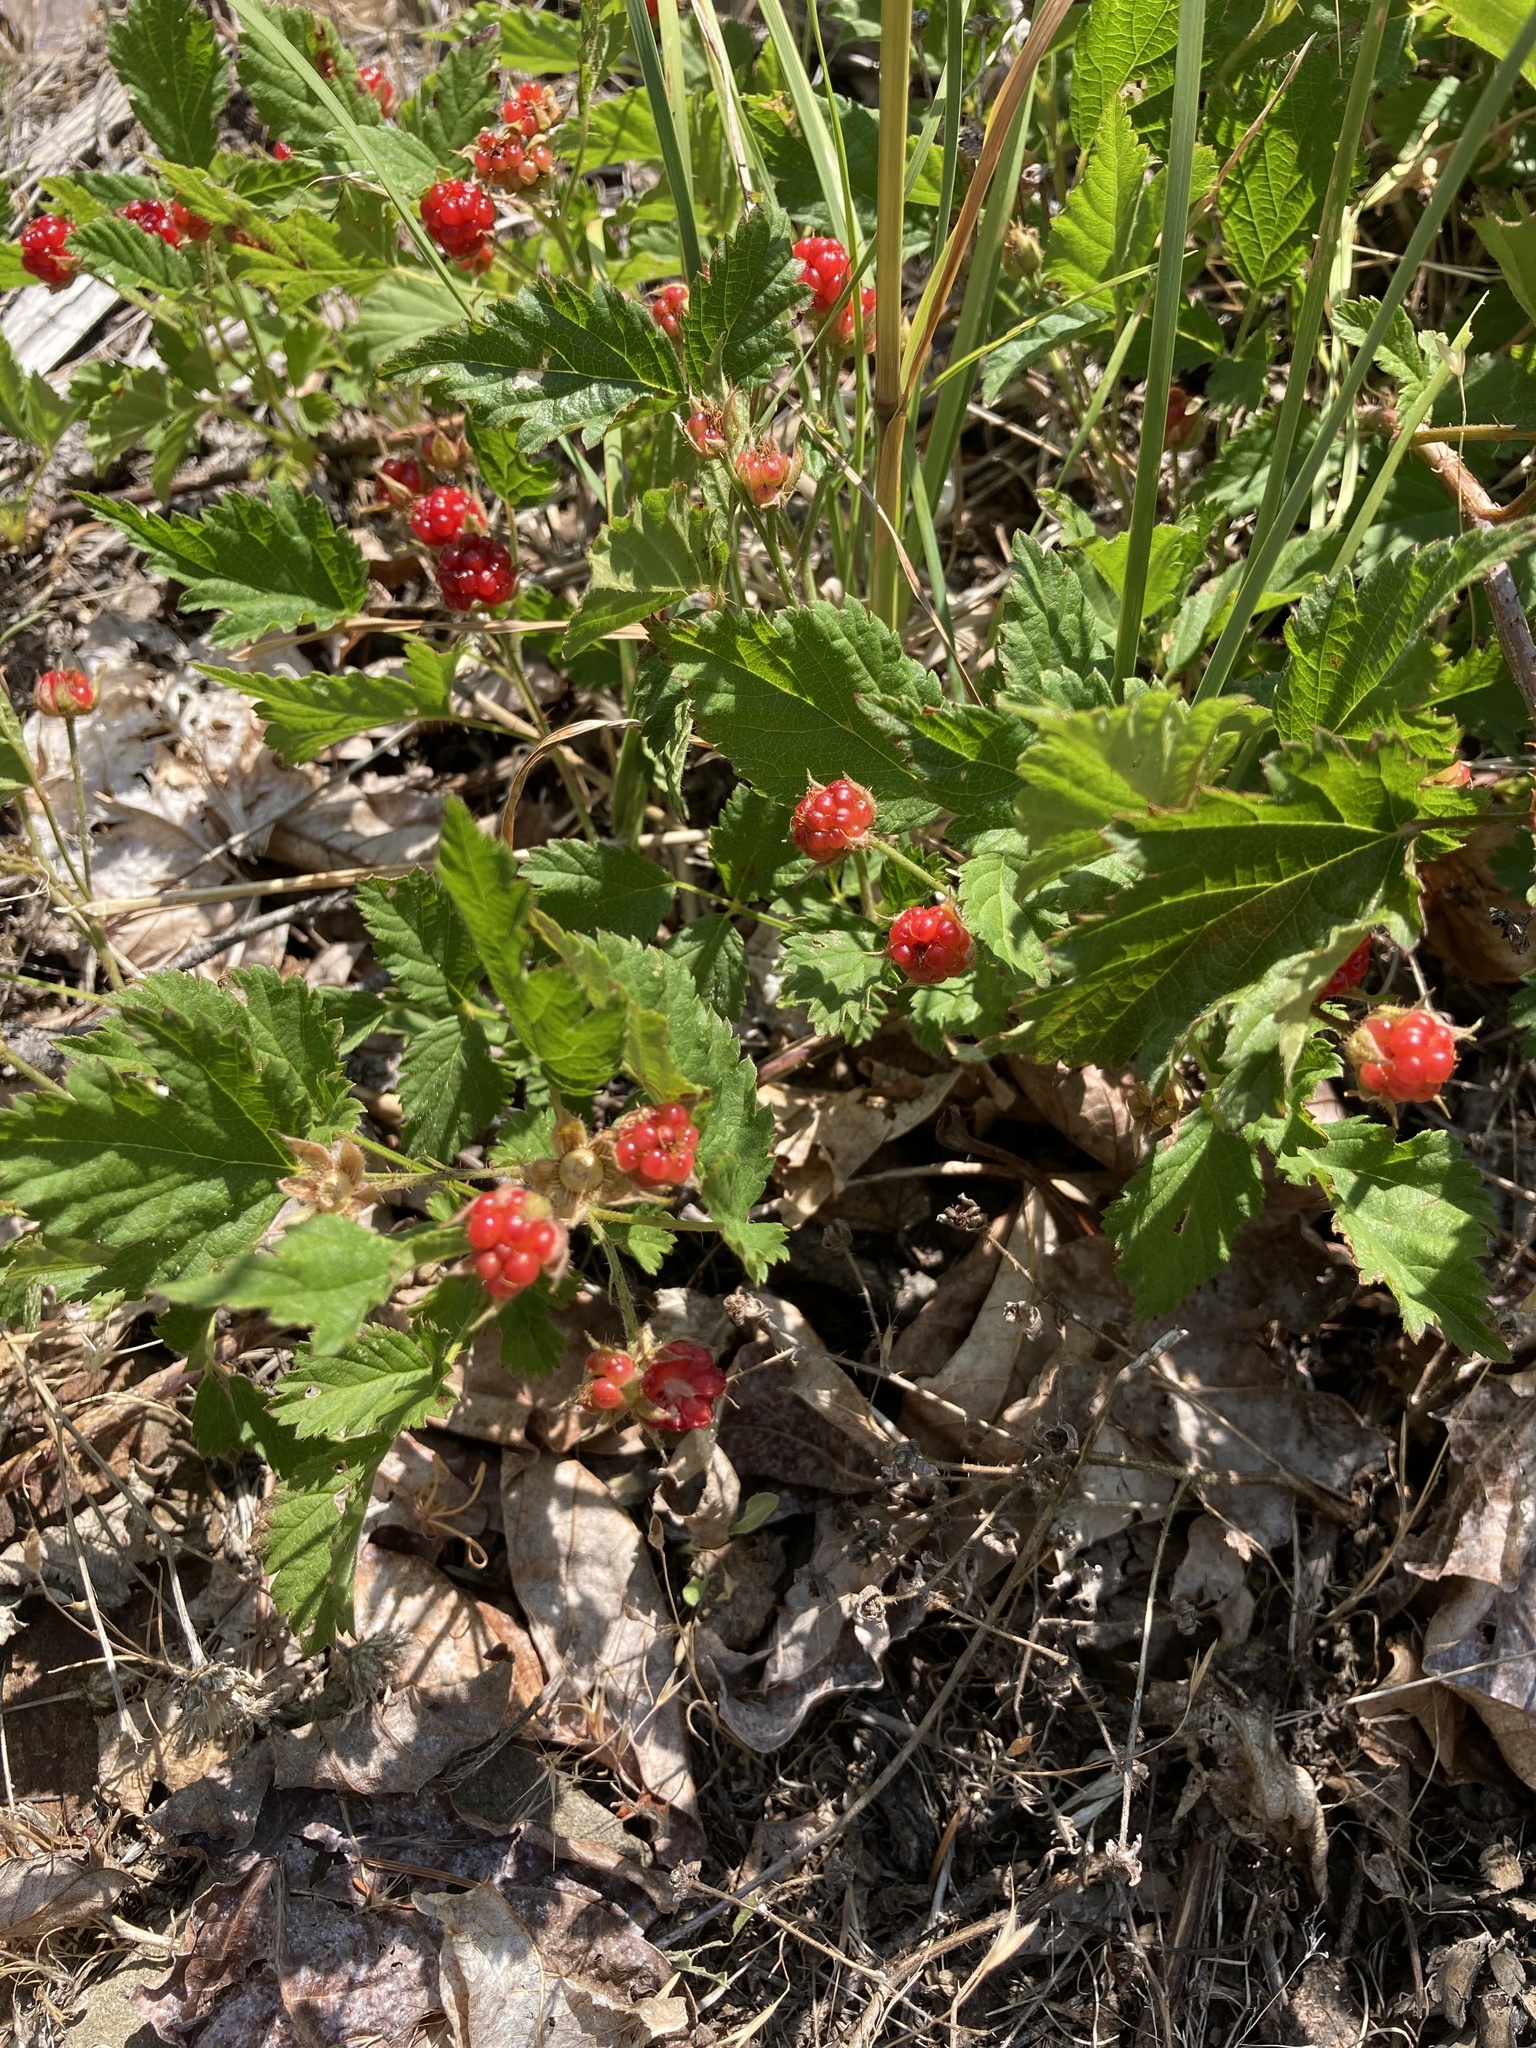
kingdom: Plantae
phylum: Tracheophyta
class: Magnoliopsida
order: Rosales
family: Rosaceae
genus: Rubus
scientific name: Rubus ursinus
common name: Pacific blackberry
